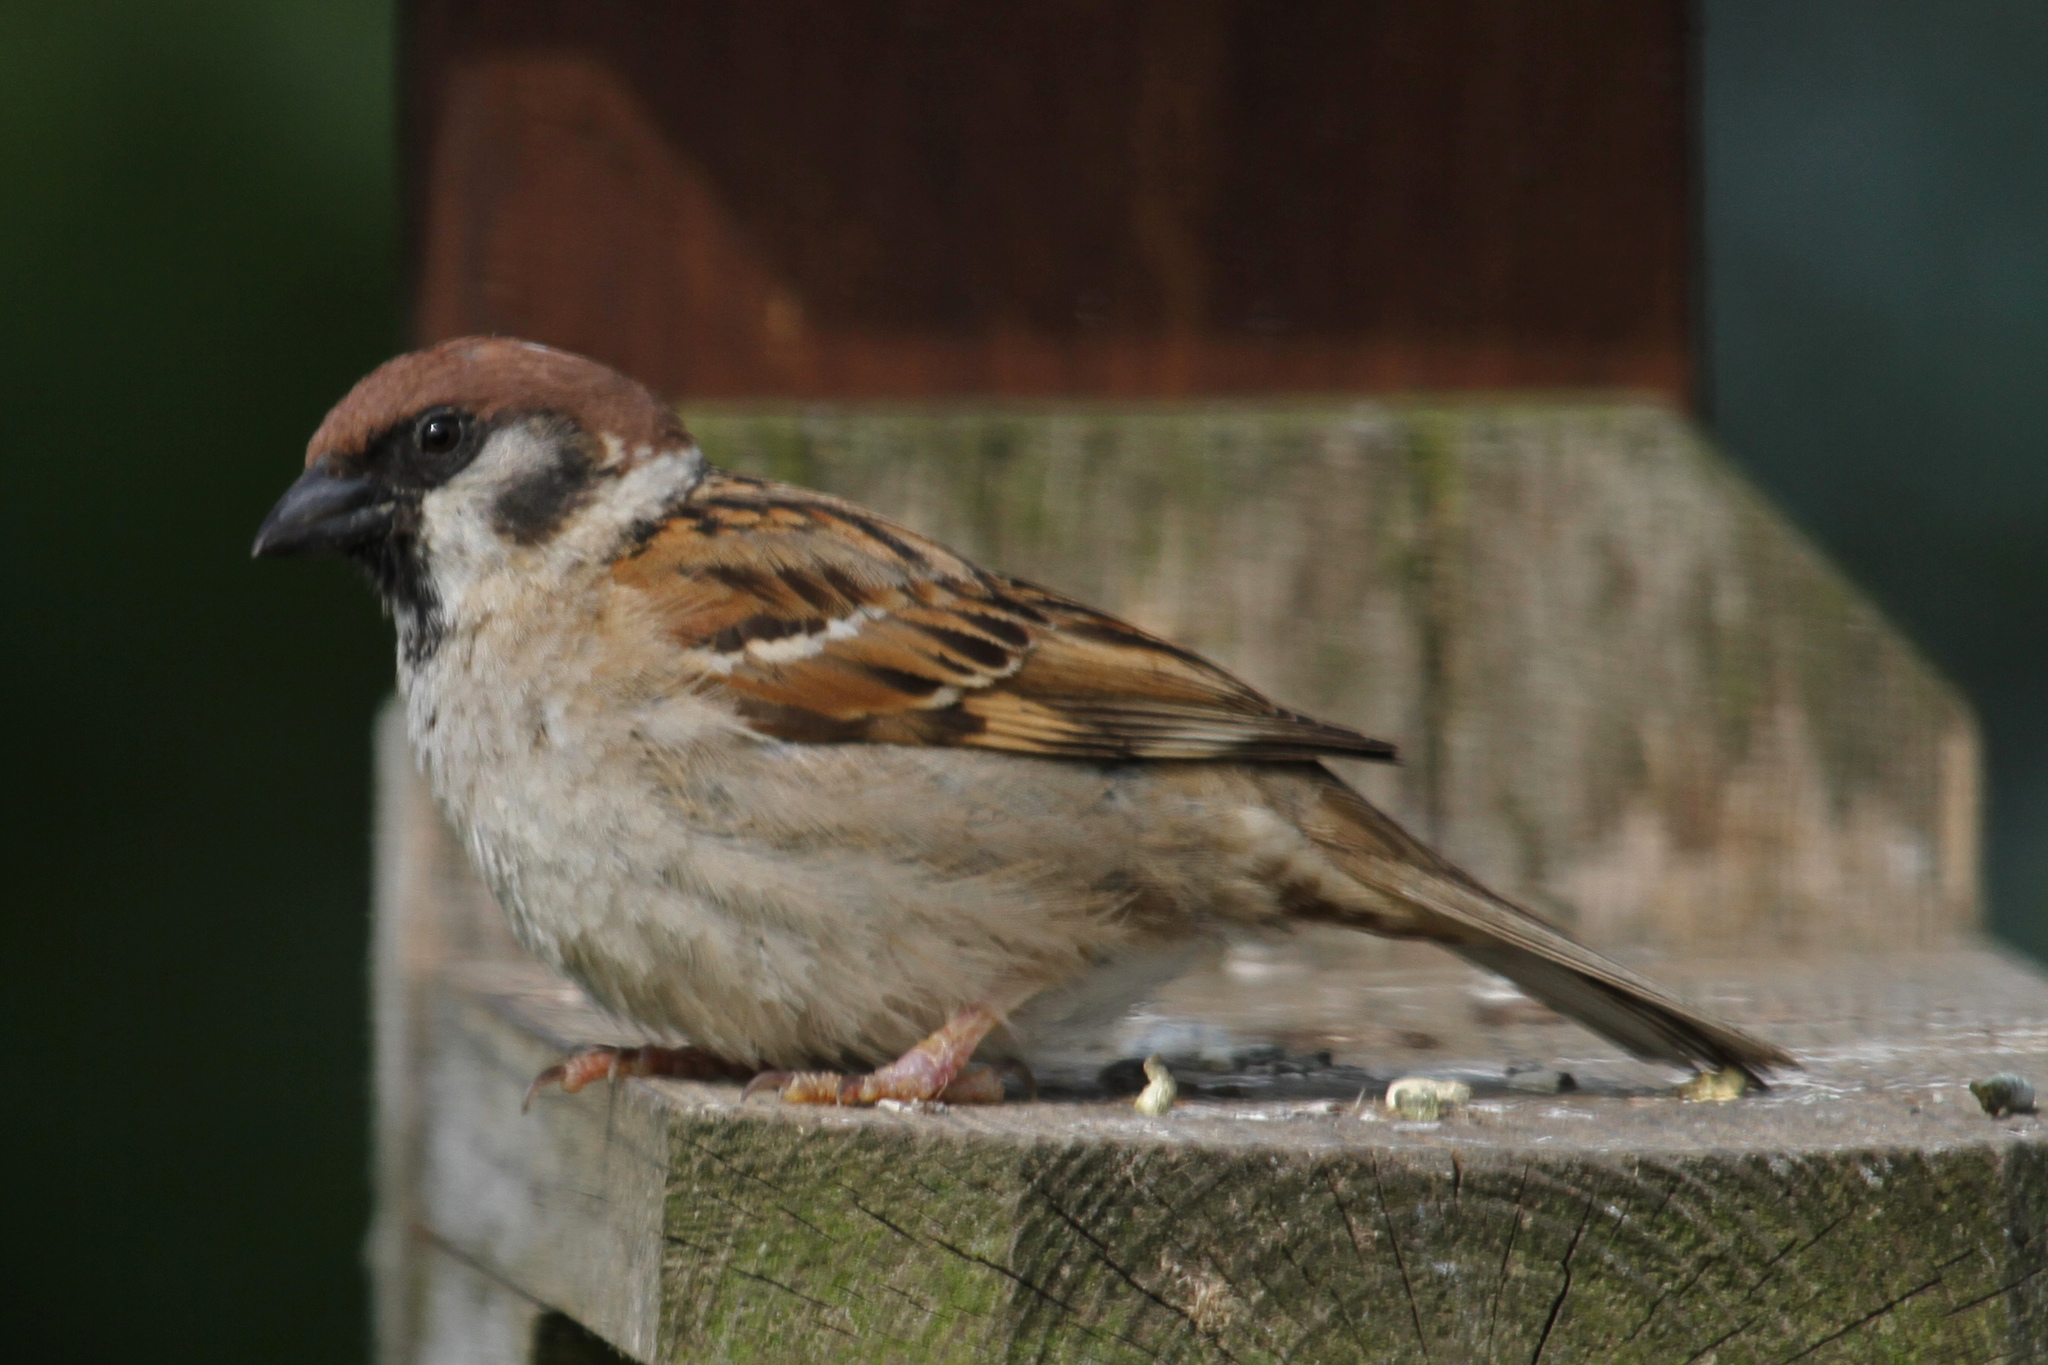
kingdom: Animalia
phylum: Chordata
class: Aves
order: Passeriformes
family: Passeridae
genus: Passer
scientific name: Passer montanus
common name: Eurasian tree sparrow
